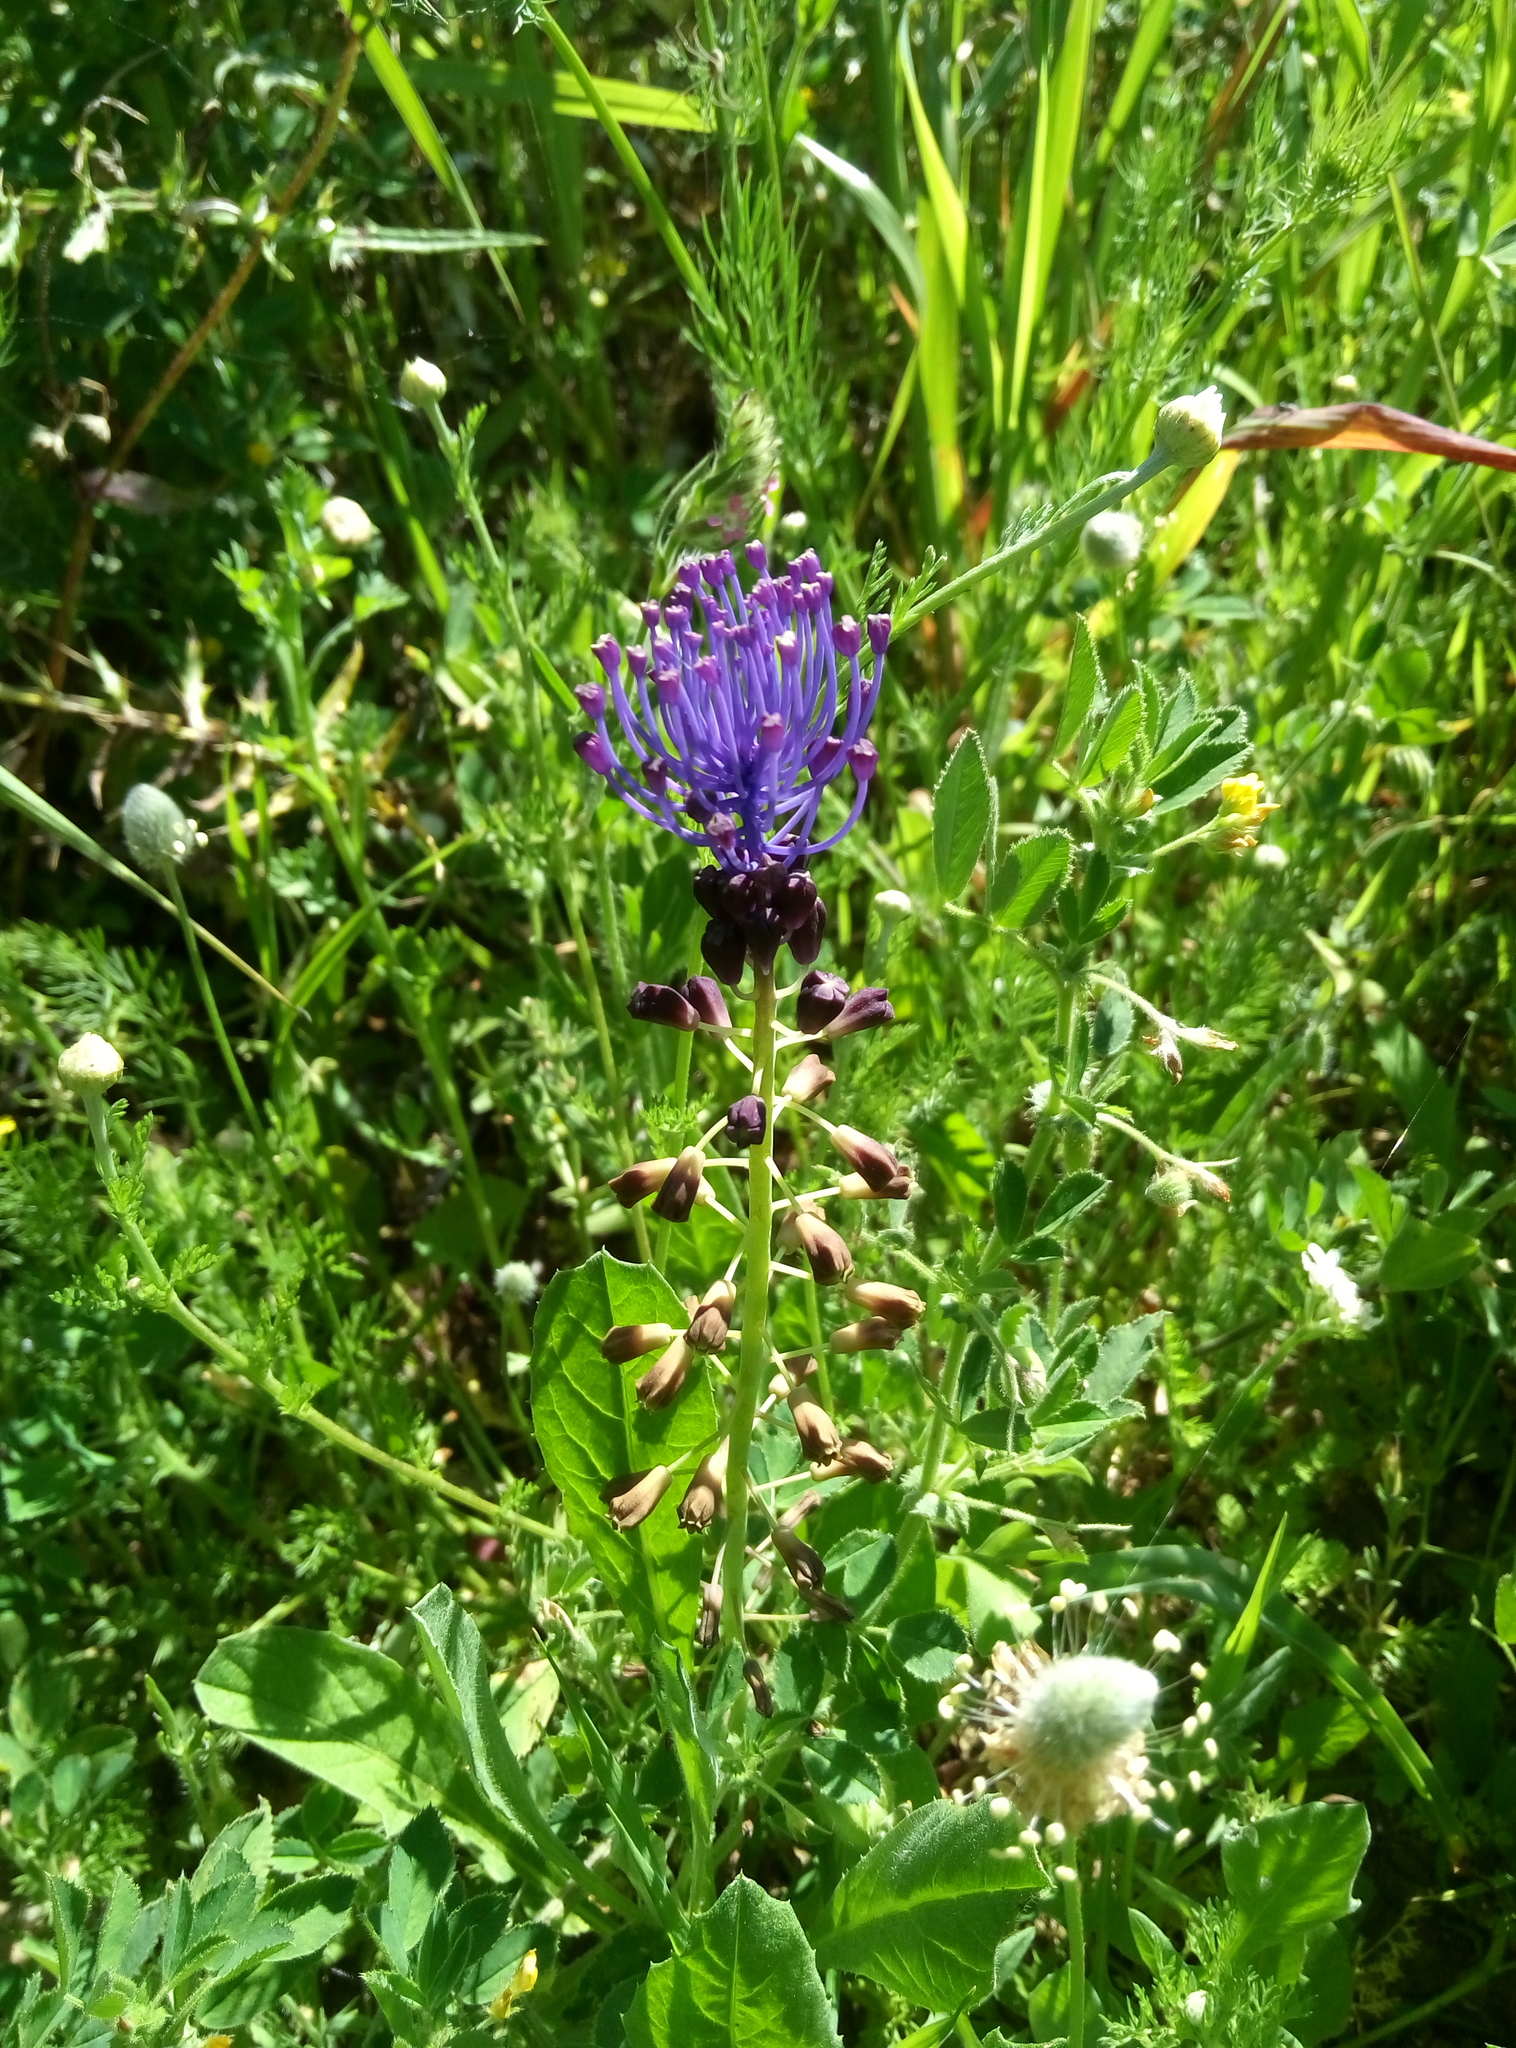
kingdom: Plantae
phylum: Tracheophyta
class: Liliopsida
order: Asparagales
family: Asparagaceae
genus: Muscari
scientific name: Muscari comosum
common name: Tassel hyacinth
